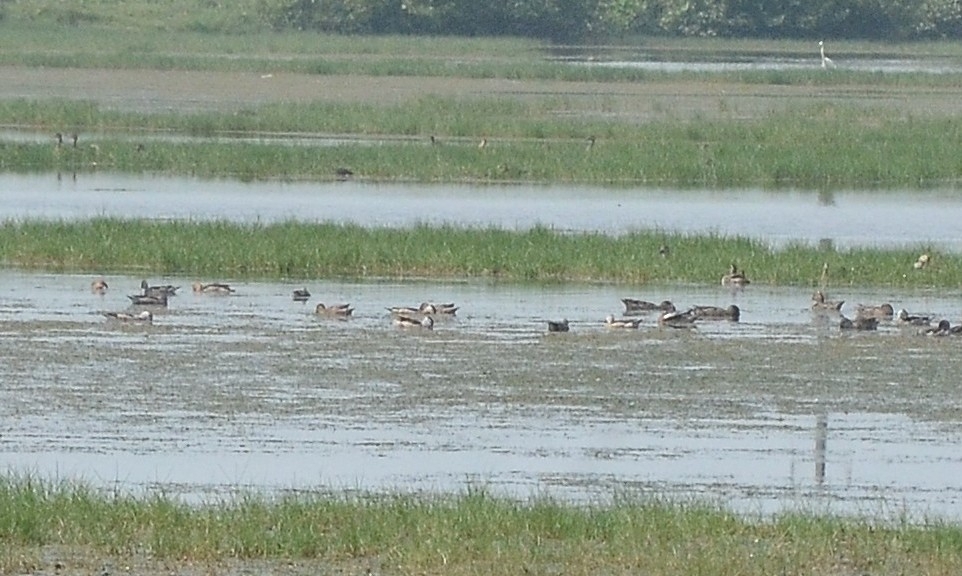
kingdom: Animalia
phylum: Chordata
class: Aves
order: Anseriformes
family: Anatidae
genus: Nettapus
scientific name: Nettapus coromandelianus
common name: Cotton pygmy-goose
